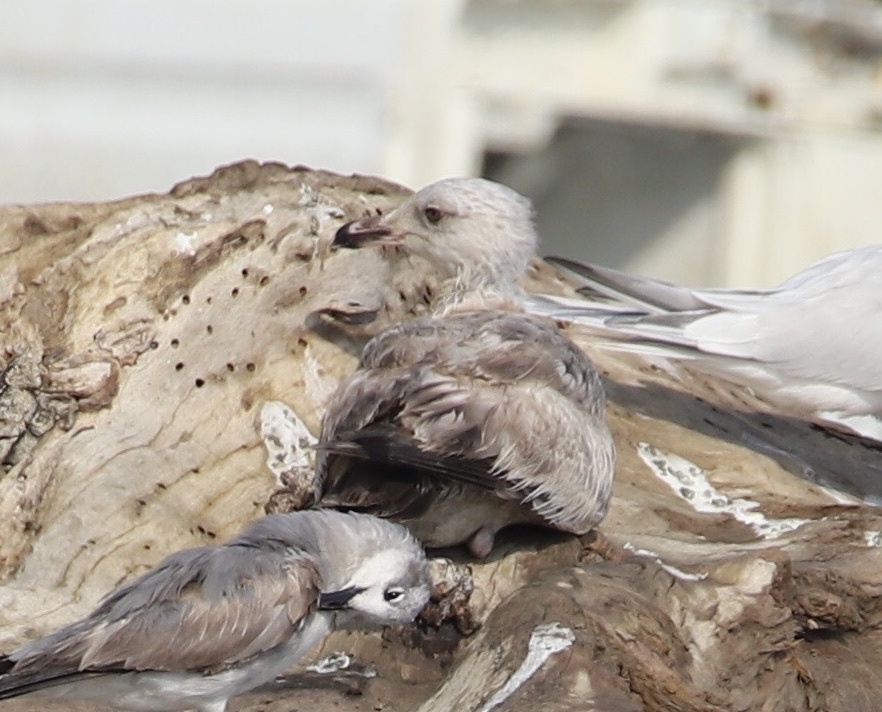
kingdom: Animalia
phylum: Chordata
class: Aves
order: Charadriiformes
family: Laridae
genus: Larus
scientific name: Larus argentatus
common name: Herring gull
